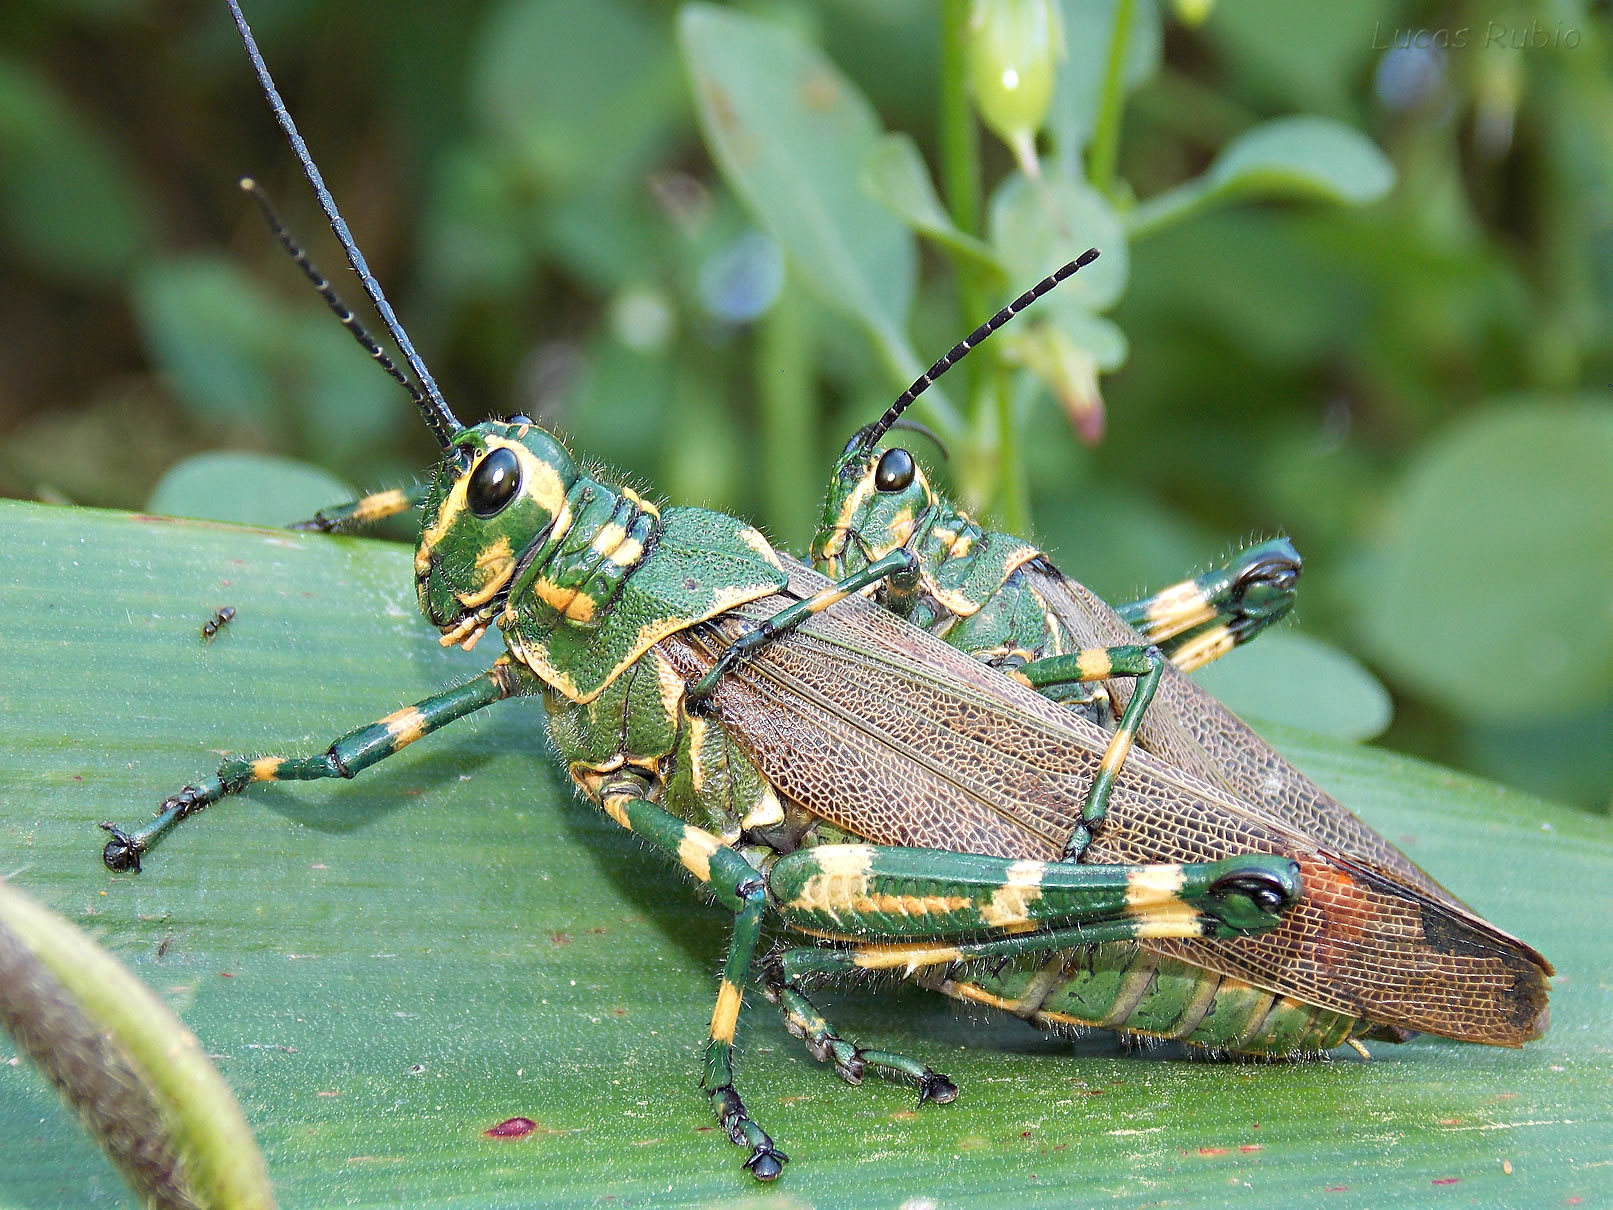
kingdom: Animalia
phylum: Arthropoda
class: Insecta
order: Orthoptera
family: Romaleidae
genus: Chromacris
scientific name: Chromacris speciosa
